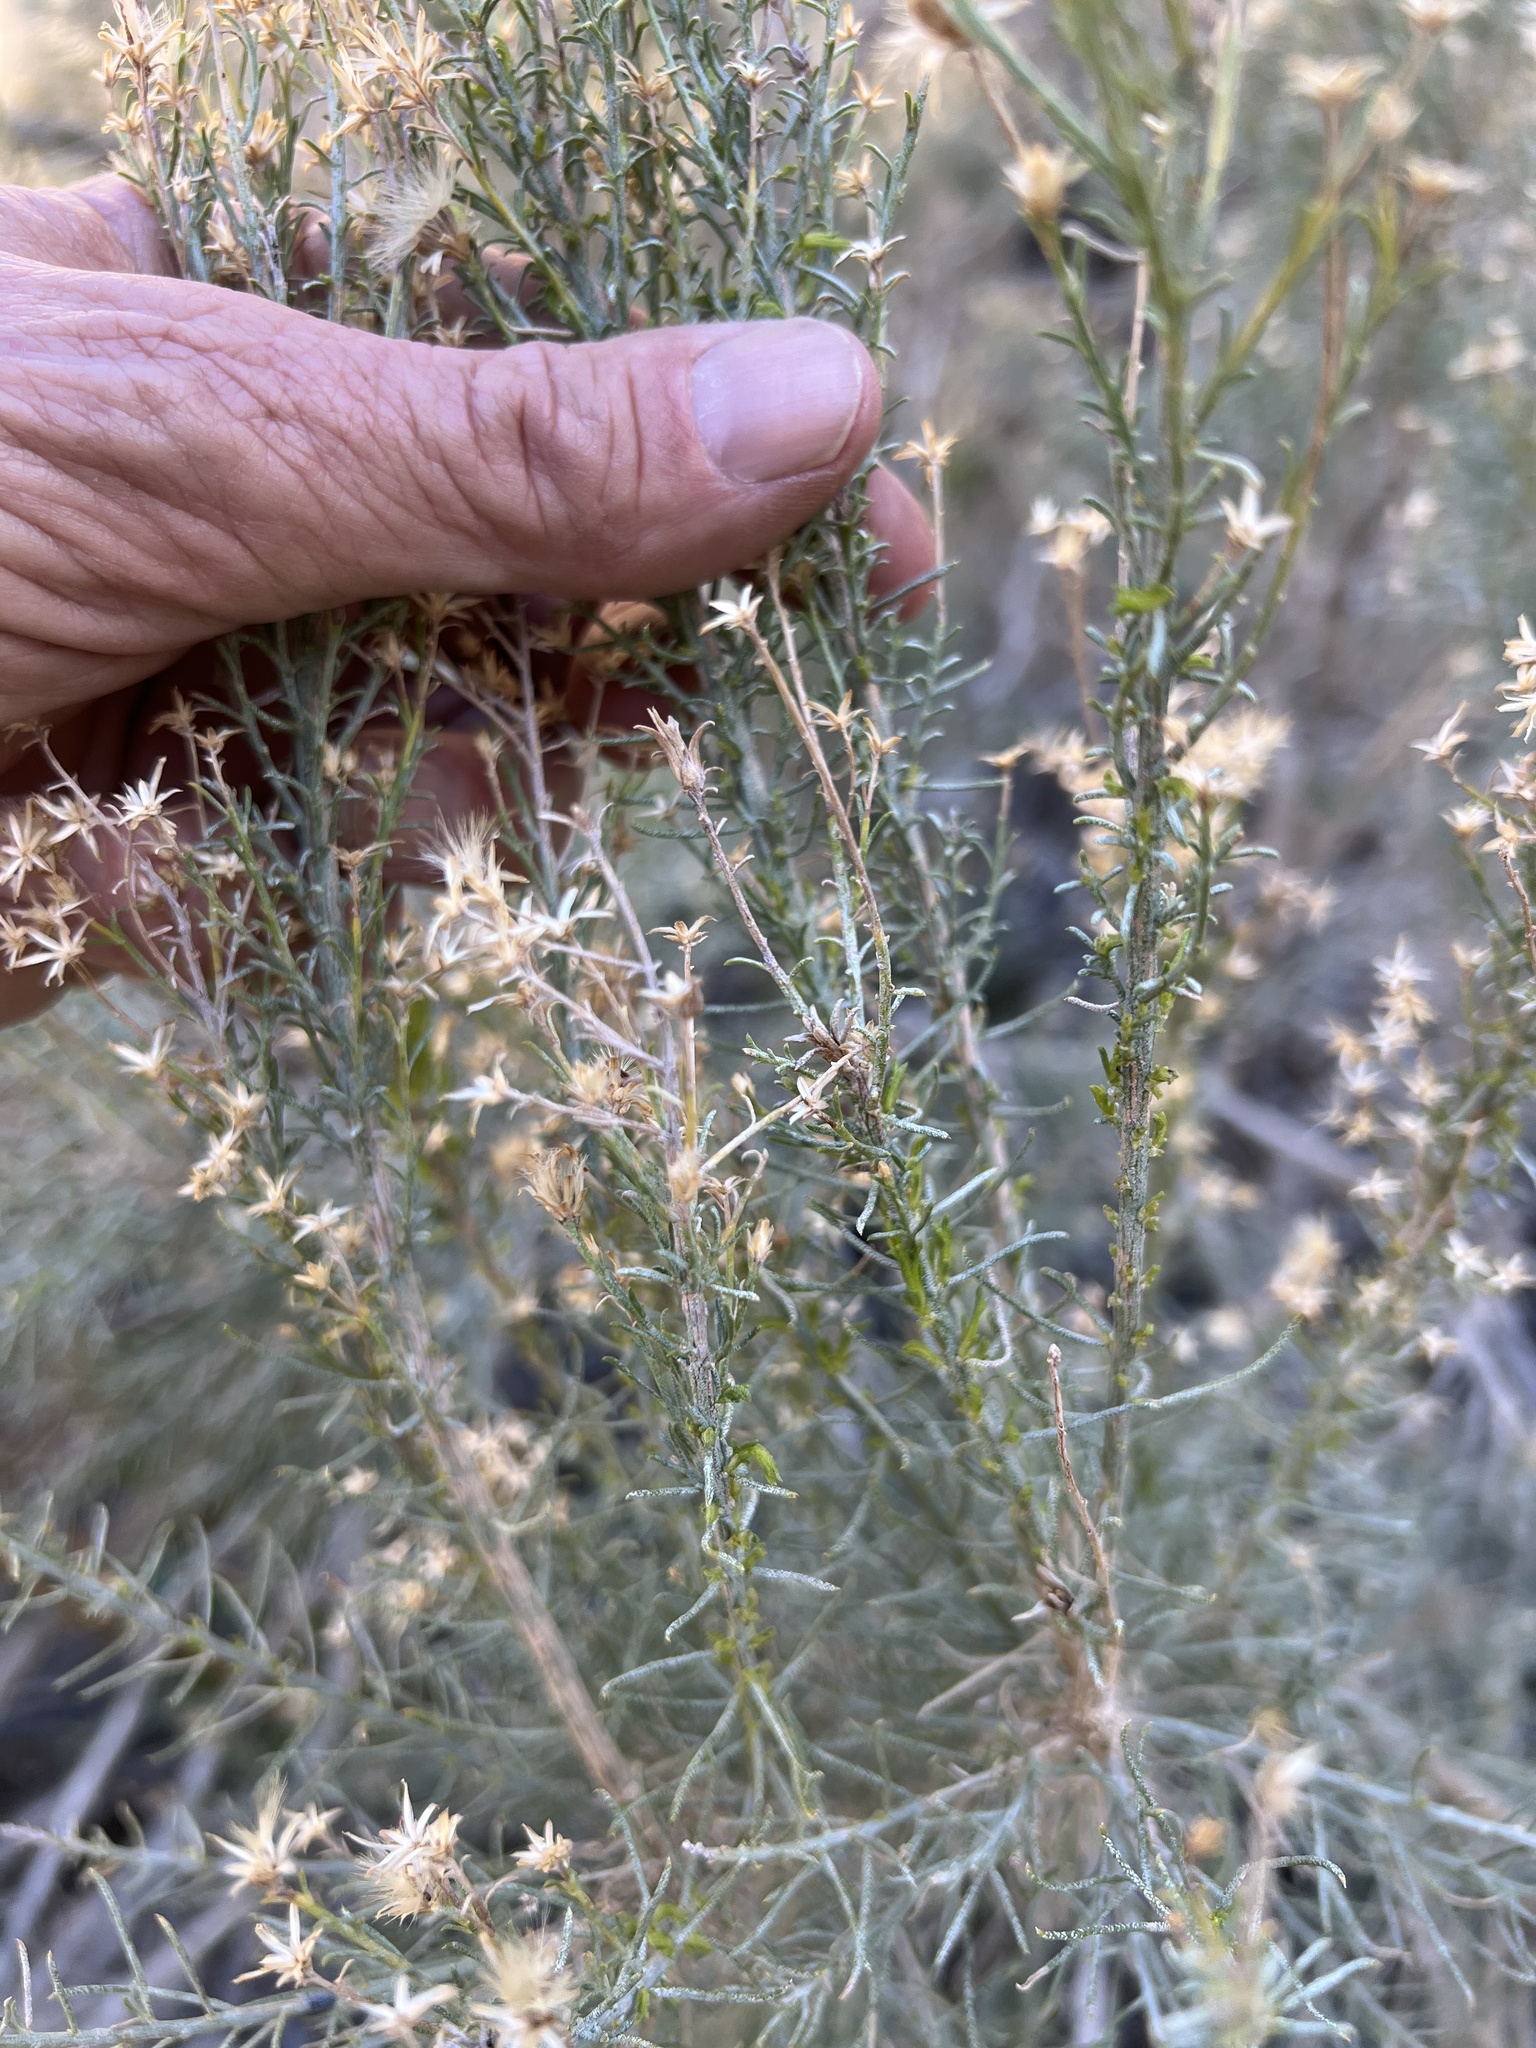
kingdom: Plantae
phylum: Tracheophyta
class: Magnoliopsida
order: Asterales
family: Asteraceae
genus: Ericameria
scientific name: Ericameria paniculata
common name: Punctate rabbitbrush
